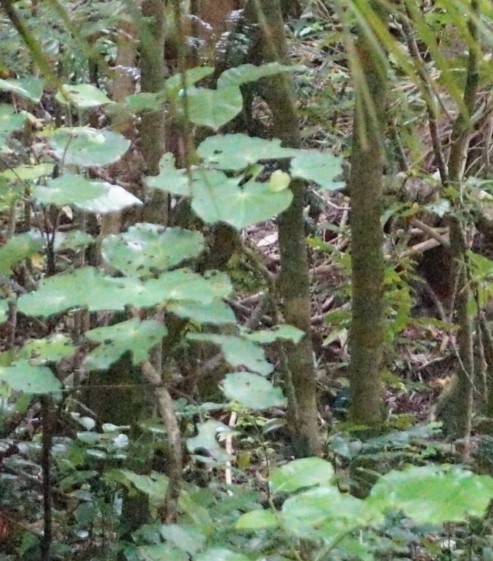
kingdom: Plantae
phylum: Tracheophyta
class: Magnoliopsida
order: Piperales
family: Piperaceae
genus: Macropiper
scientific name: Macropiper excelsum
